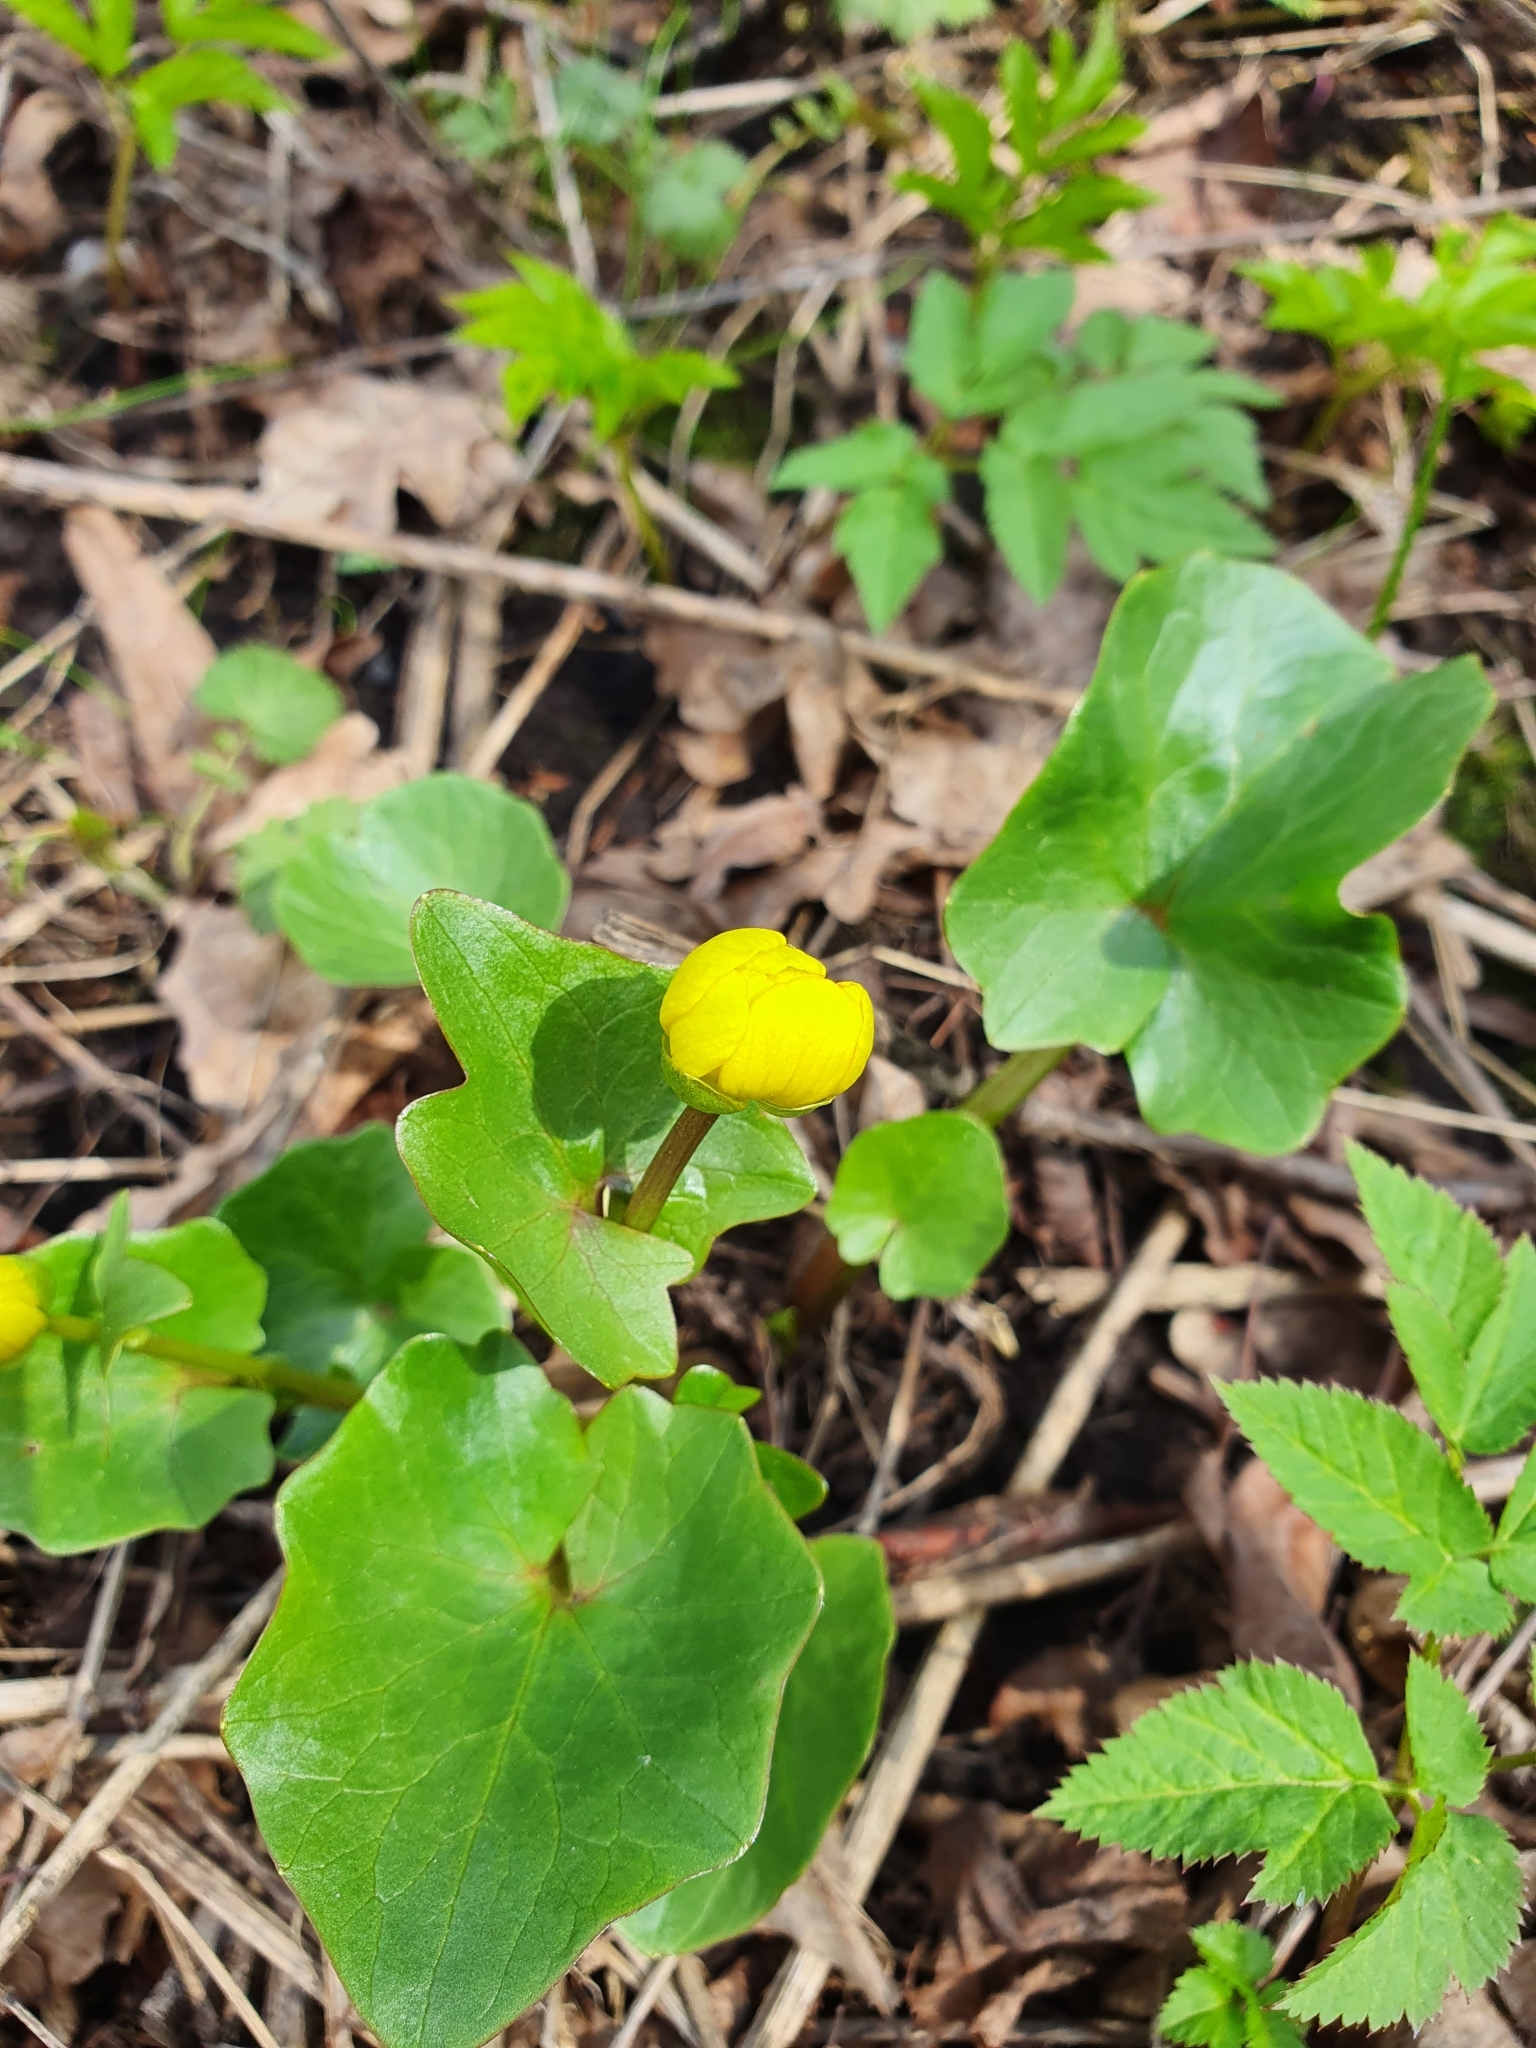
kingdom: Plantae
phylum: Tracheophyta
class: Magnoliopsida
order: Ranunculales
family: Ranunculaceae
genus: Ficaria
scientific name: Ficaria verna
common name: Lesser celandine
